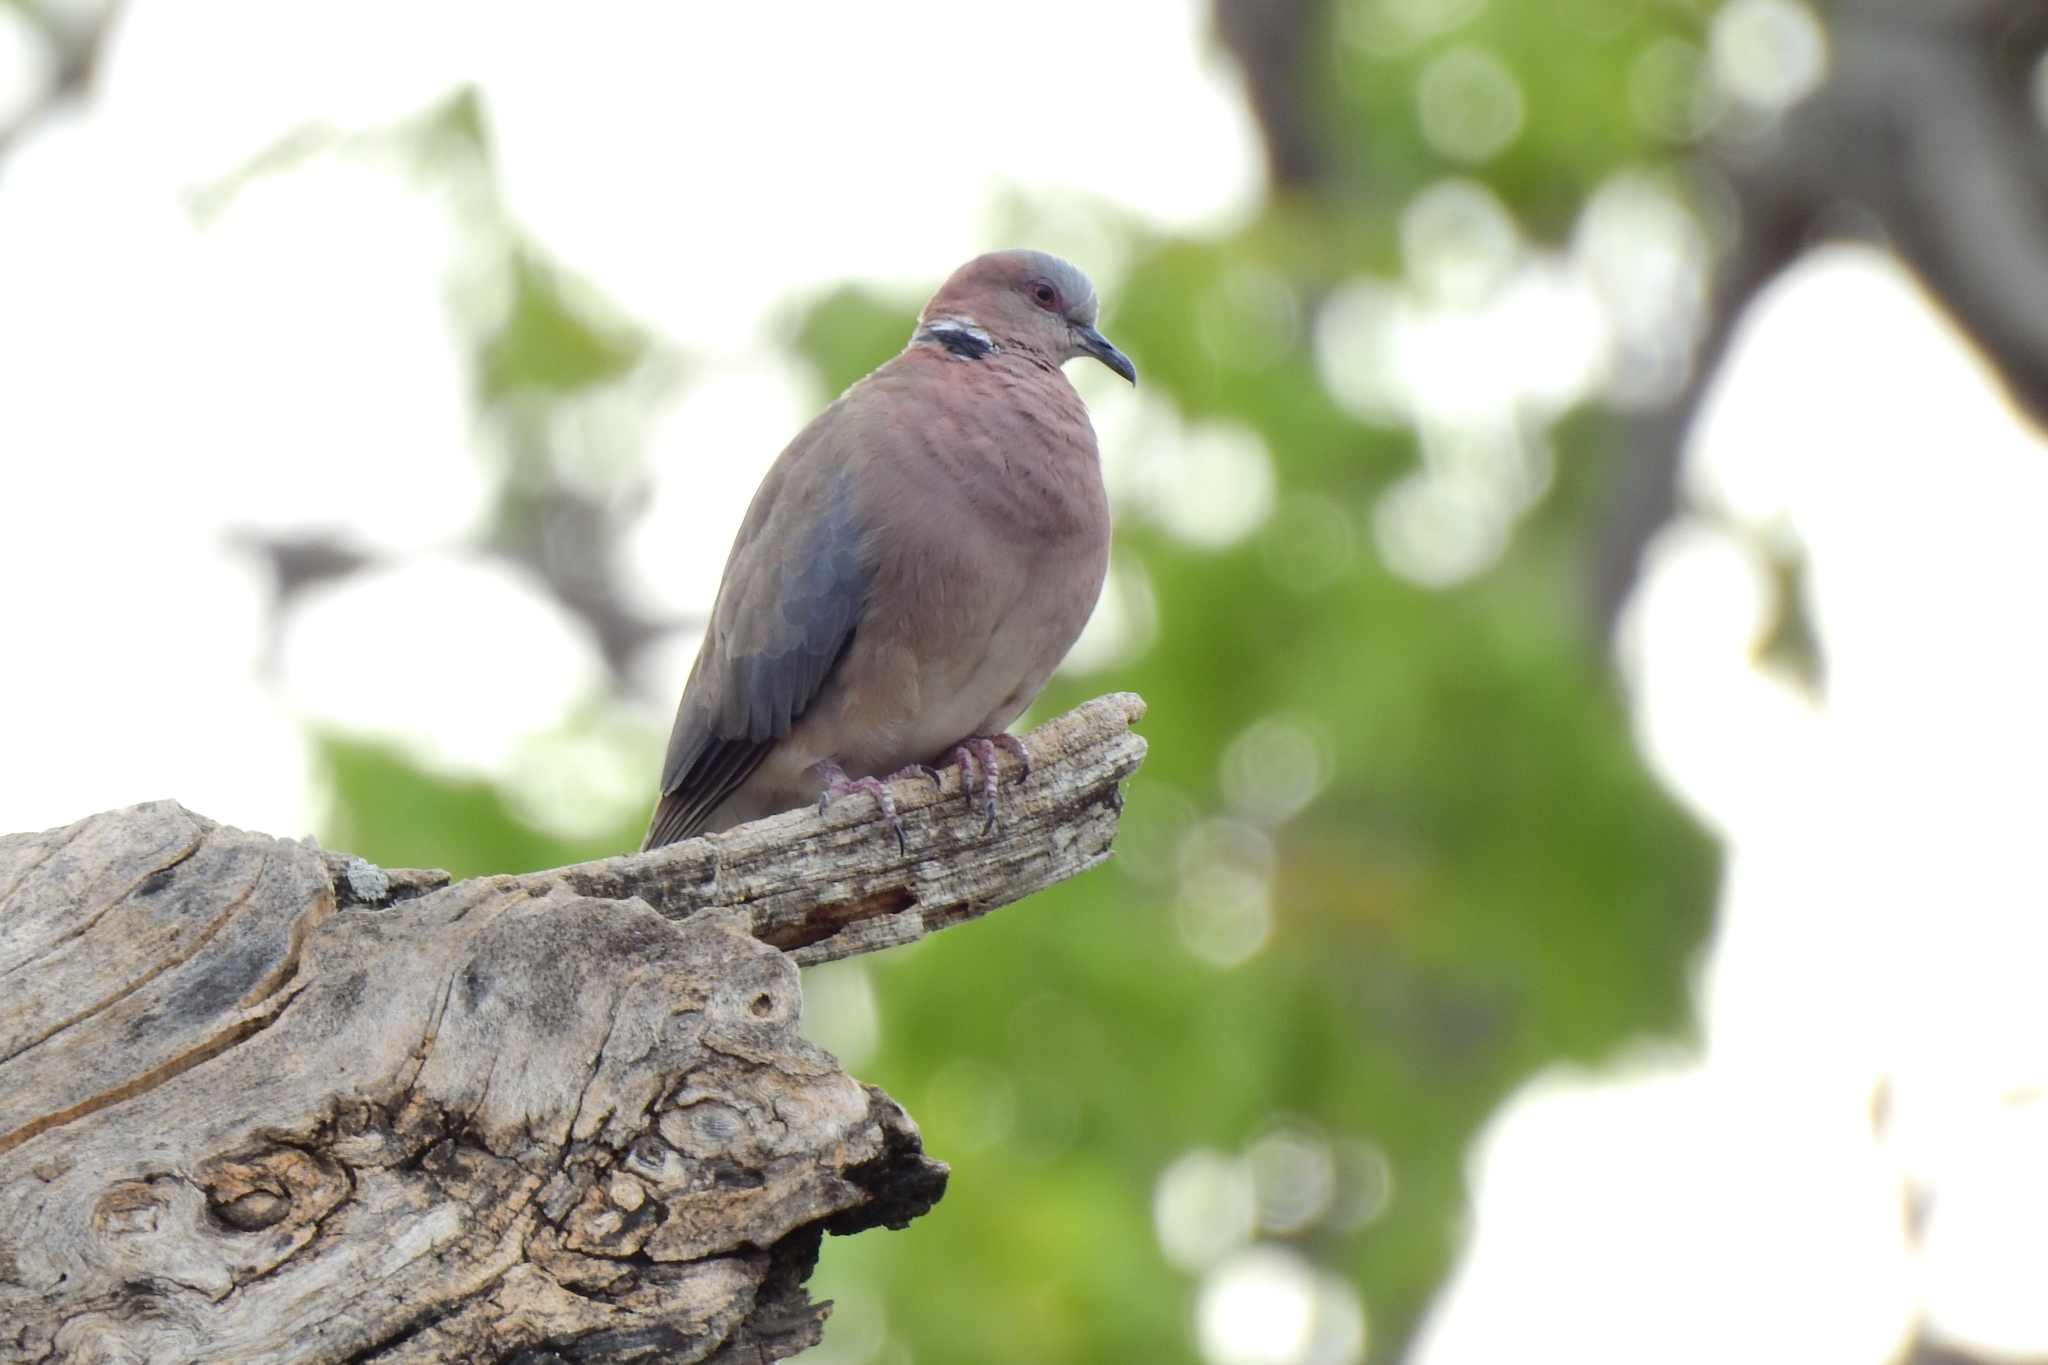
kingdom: Animalia
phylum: Chordata
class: Aves
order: Columbiformes
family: Columbidae
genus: Streptopelia
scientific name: Streptopelia bitorquata
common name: Island collared dove
